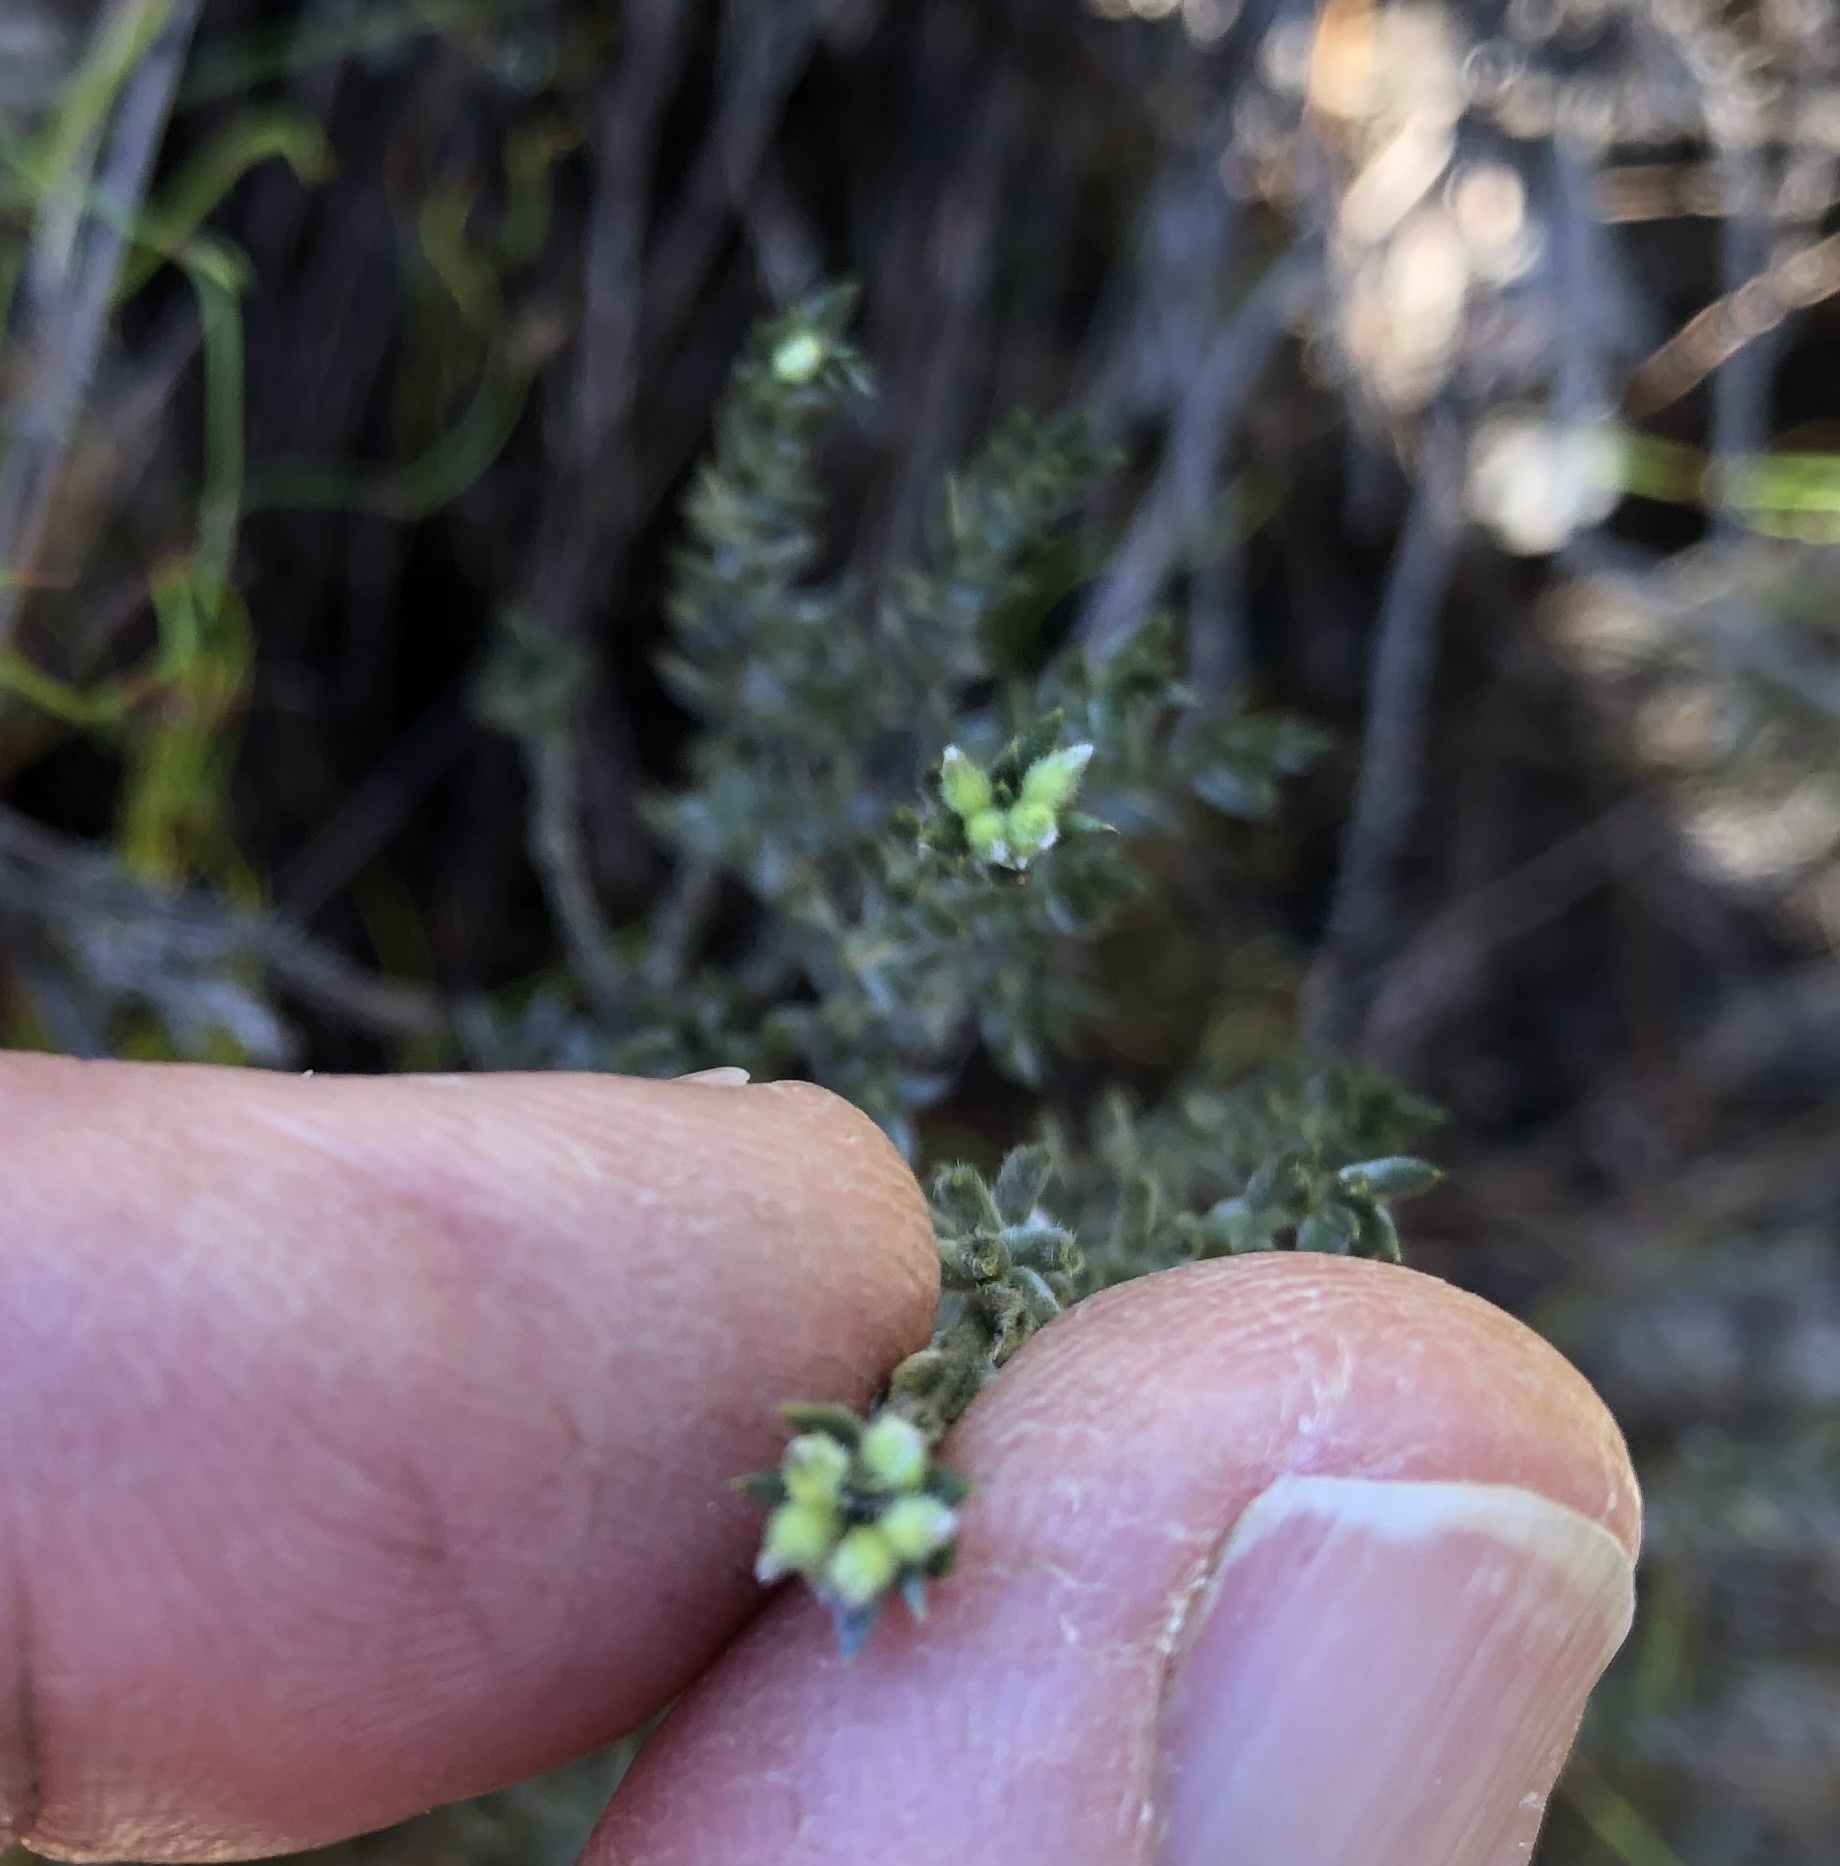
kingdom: Plantae
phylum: Tracheophyta
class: Magnoliopsida
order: Fabales
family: Fabaceae
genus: Amphithalea
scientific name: Amphithalea ericifolia
